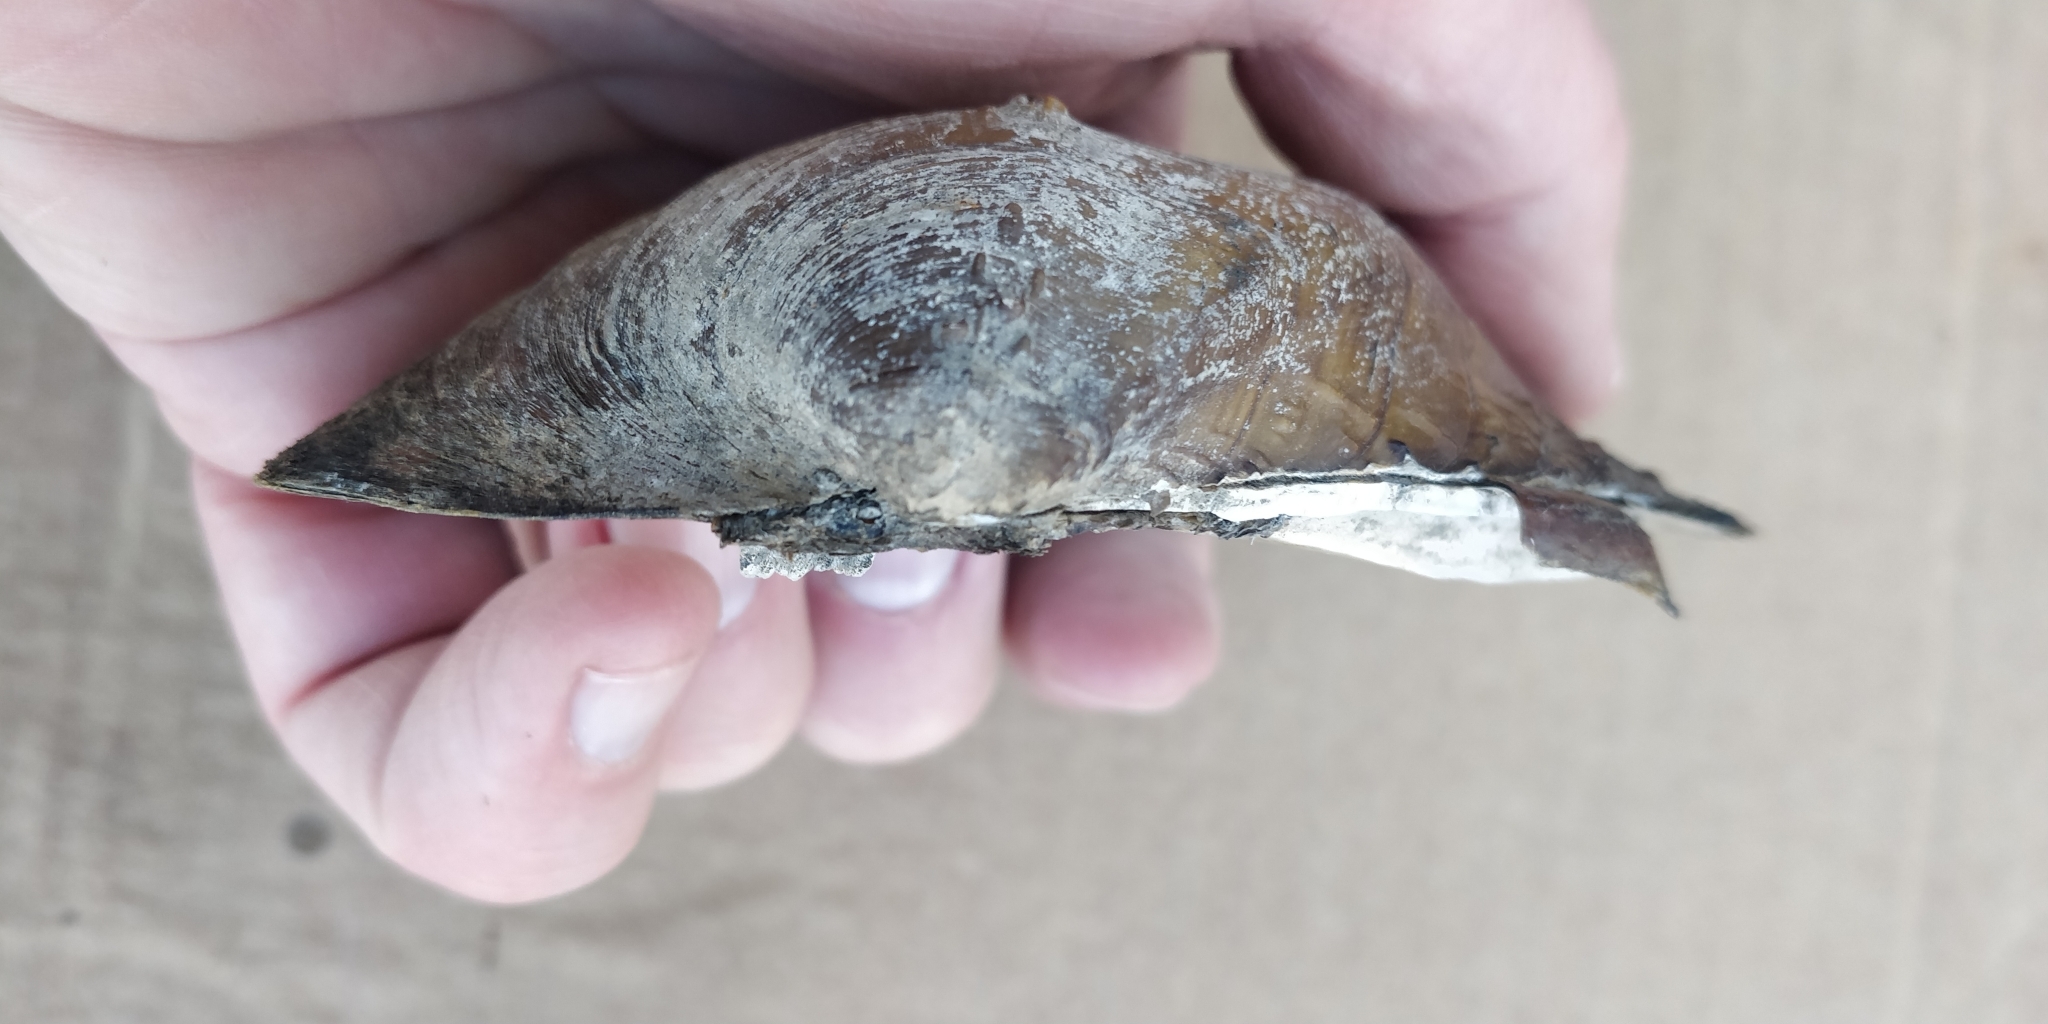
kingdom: Animalia
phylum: Mollusca
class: Bivalvia
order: Unionida
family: Unionidae
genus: Quadrula
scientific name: Quadrula quadrula
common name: Mapleleaf
